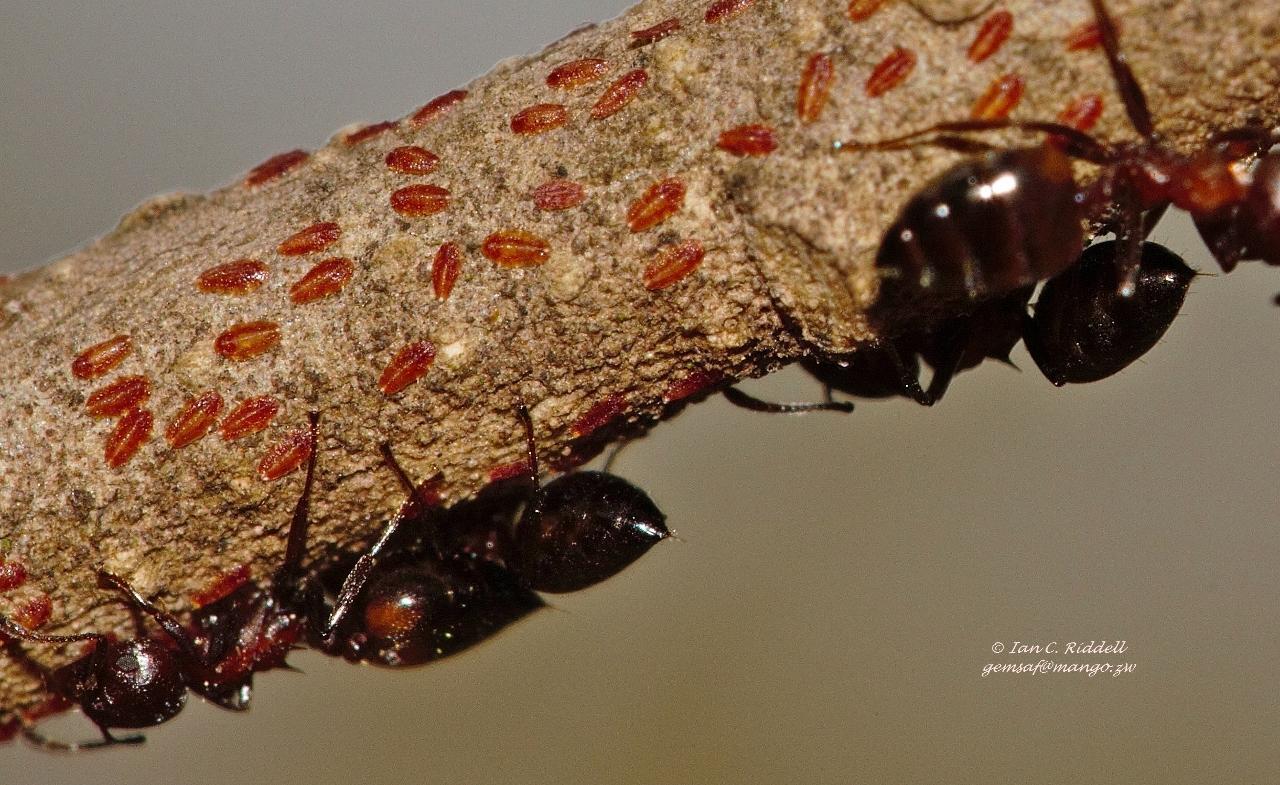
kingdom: Animalia
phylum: Arthropoda
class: Insecta
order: Hymenoptera
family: Formicidae
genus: Crematogaster
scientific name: Crematogaster castanea
